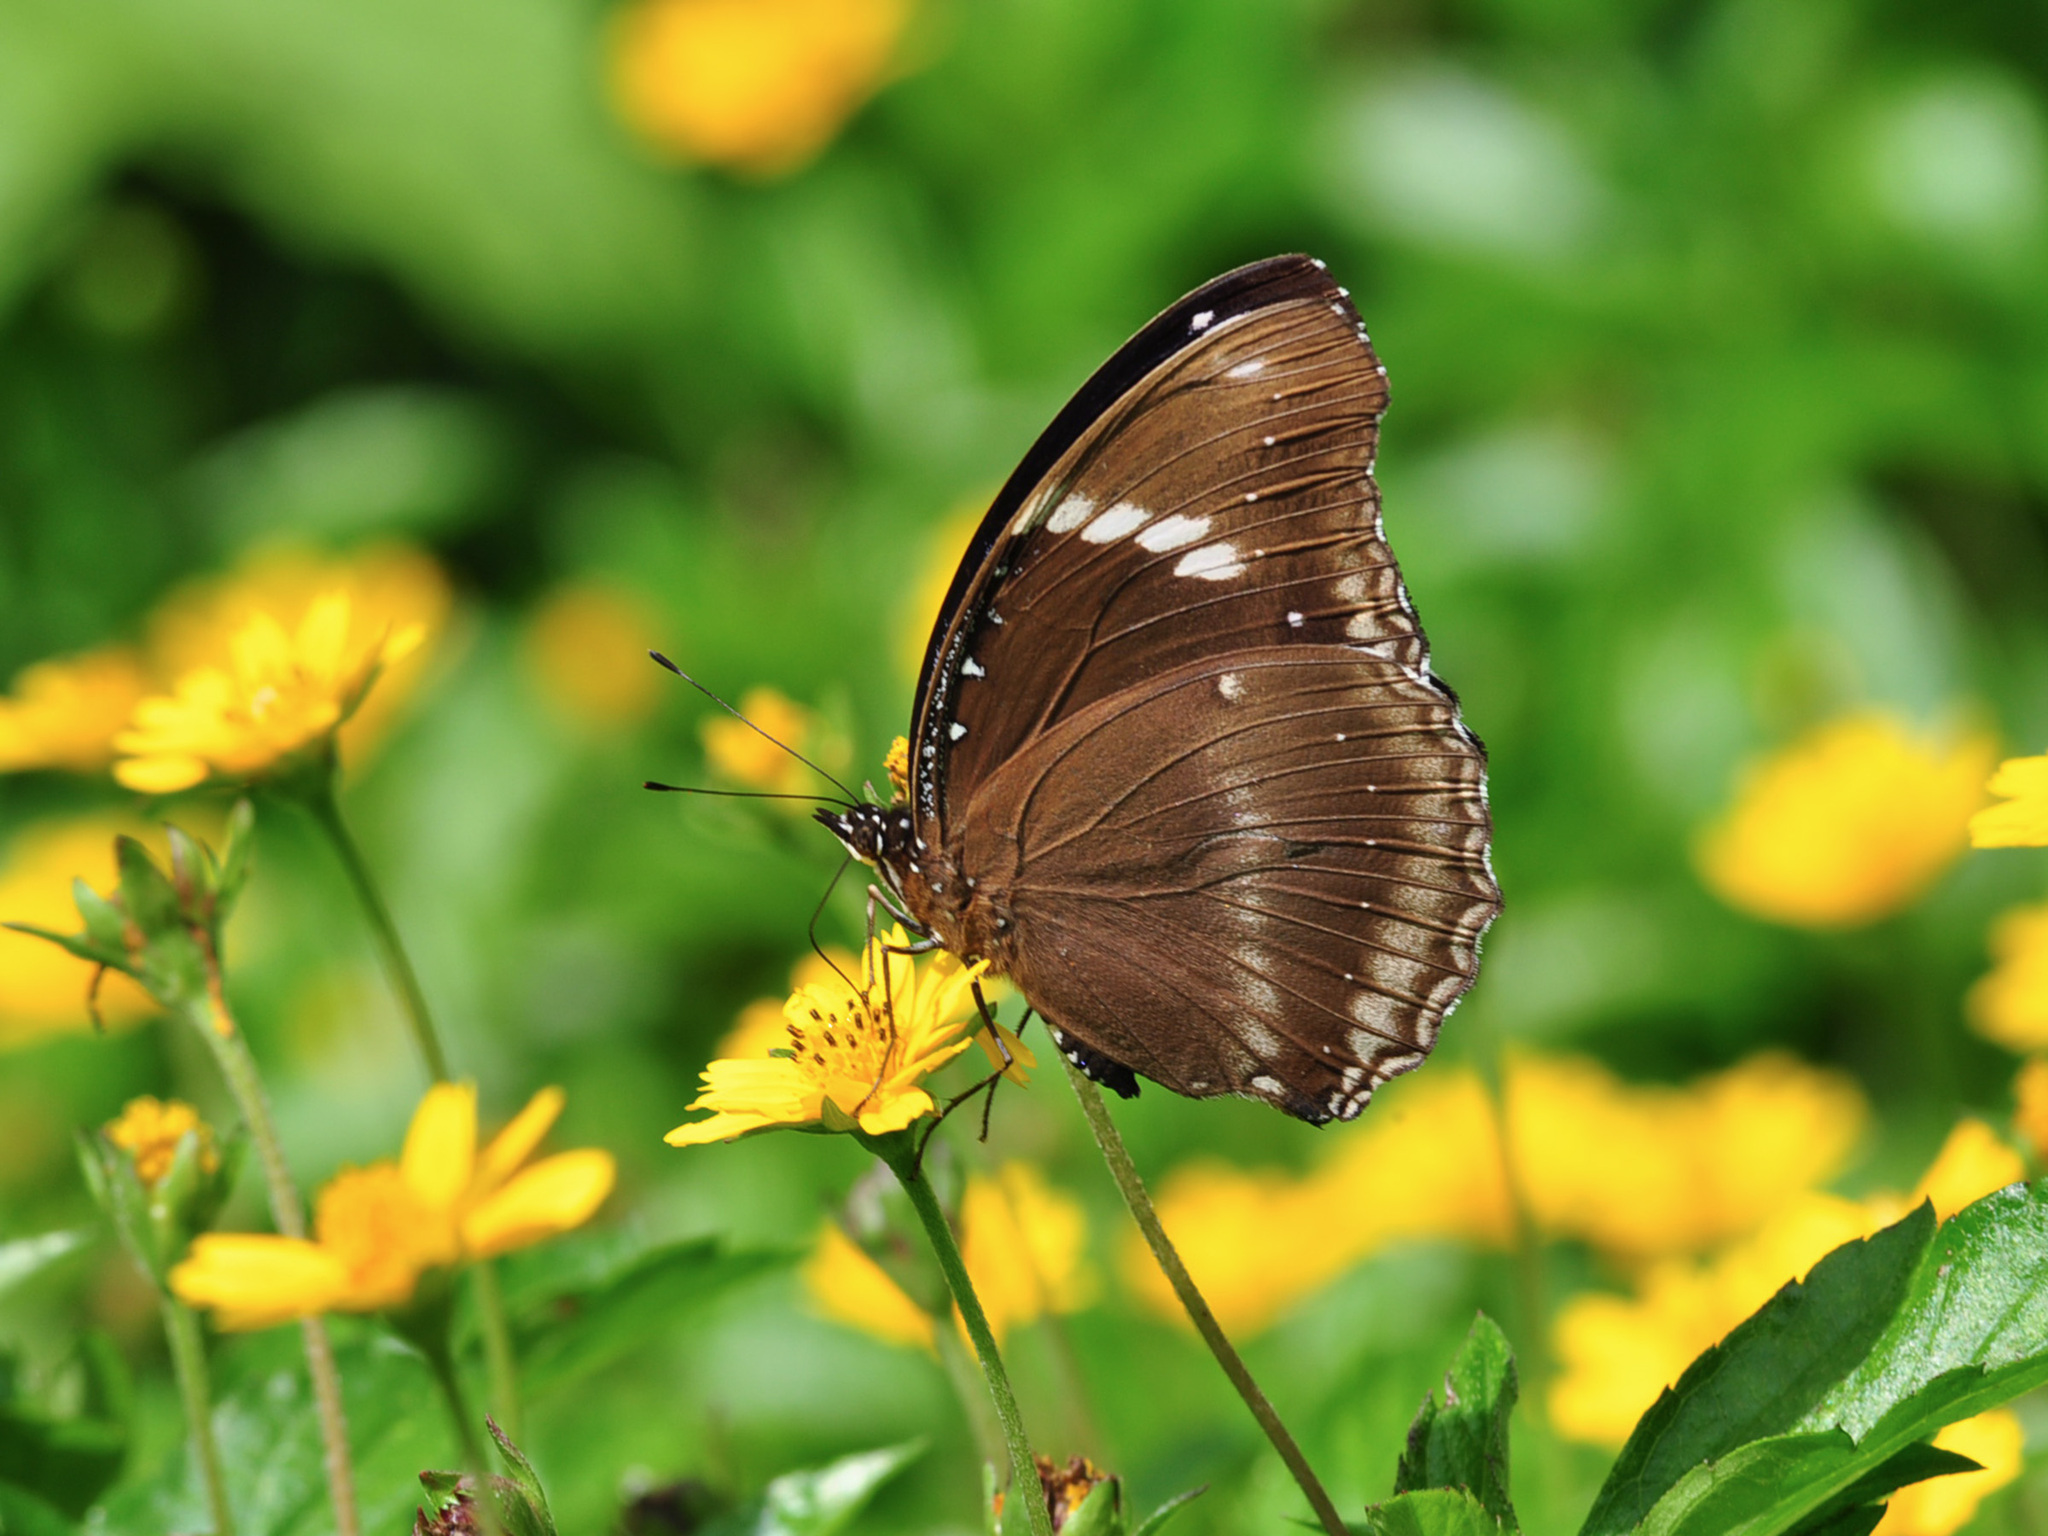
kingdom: Animalia
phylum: Arthropoda
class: Insecta
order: Lepidoptera
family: Nymphalidae
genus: Hypolimnas
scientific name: Hypolimnas bolina
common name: Great eggfly
